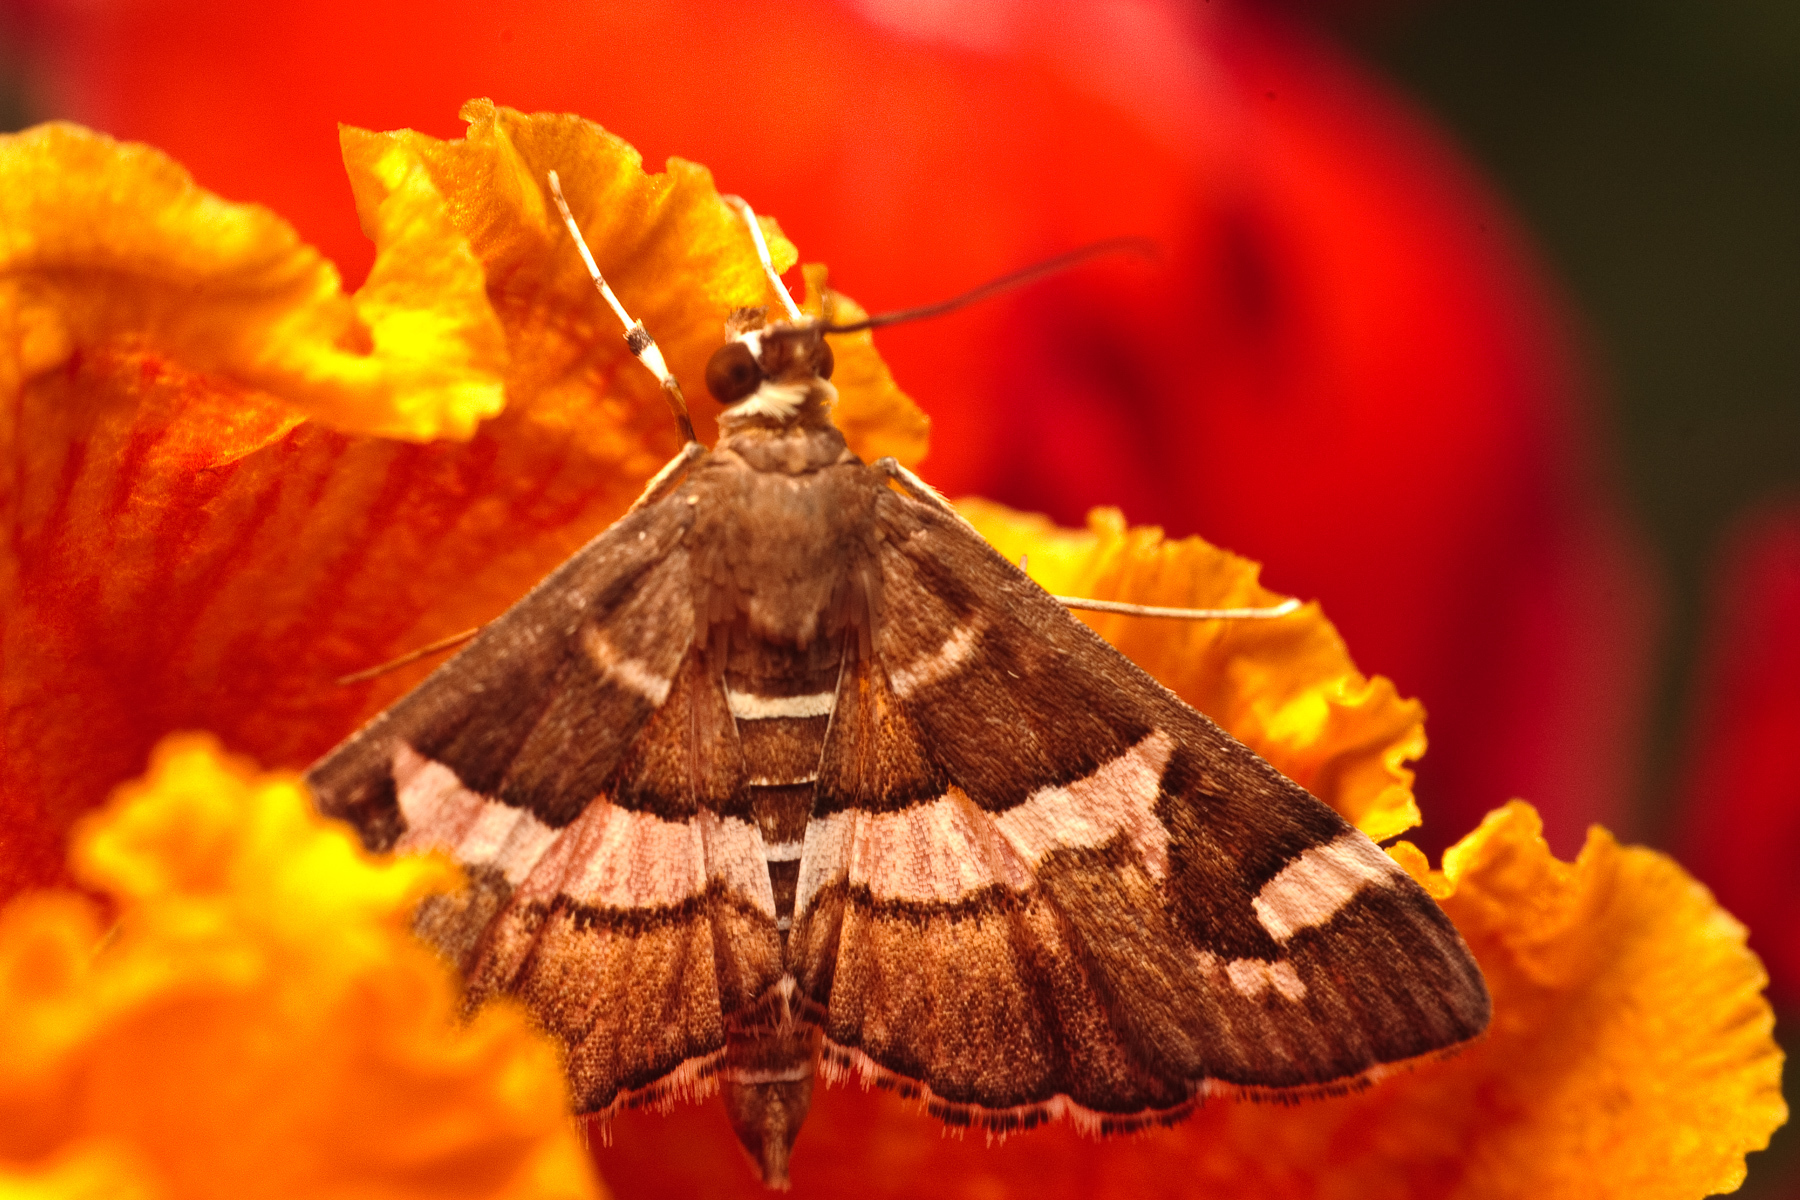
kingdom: Animalia
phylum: Arthropoda
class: Insecta
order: Lepidoptera
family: Crambidae
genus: Spoladea
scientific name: Spoladea recurvalis
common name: Beet webworm moth
